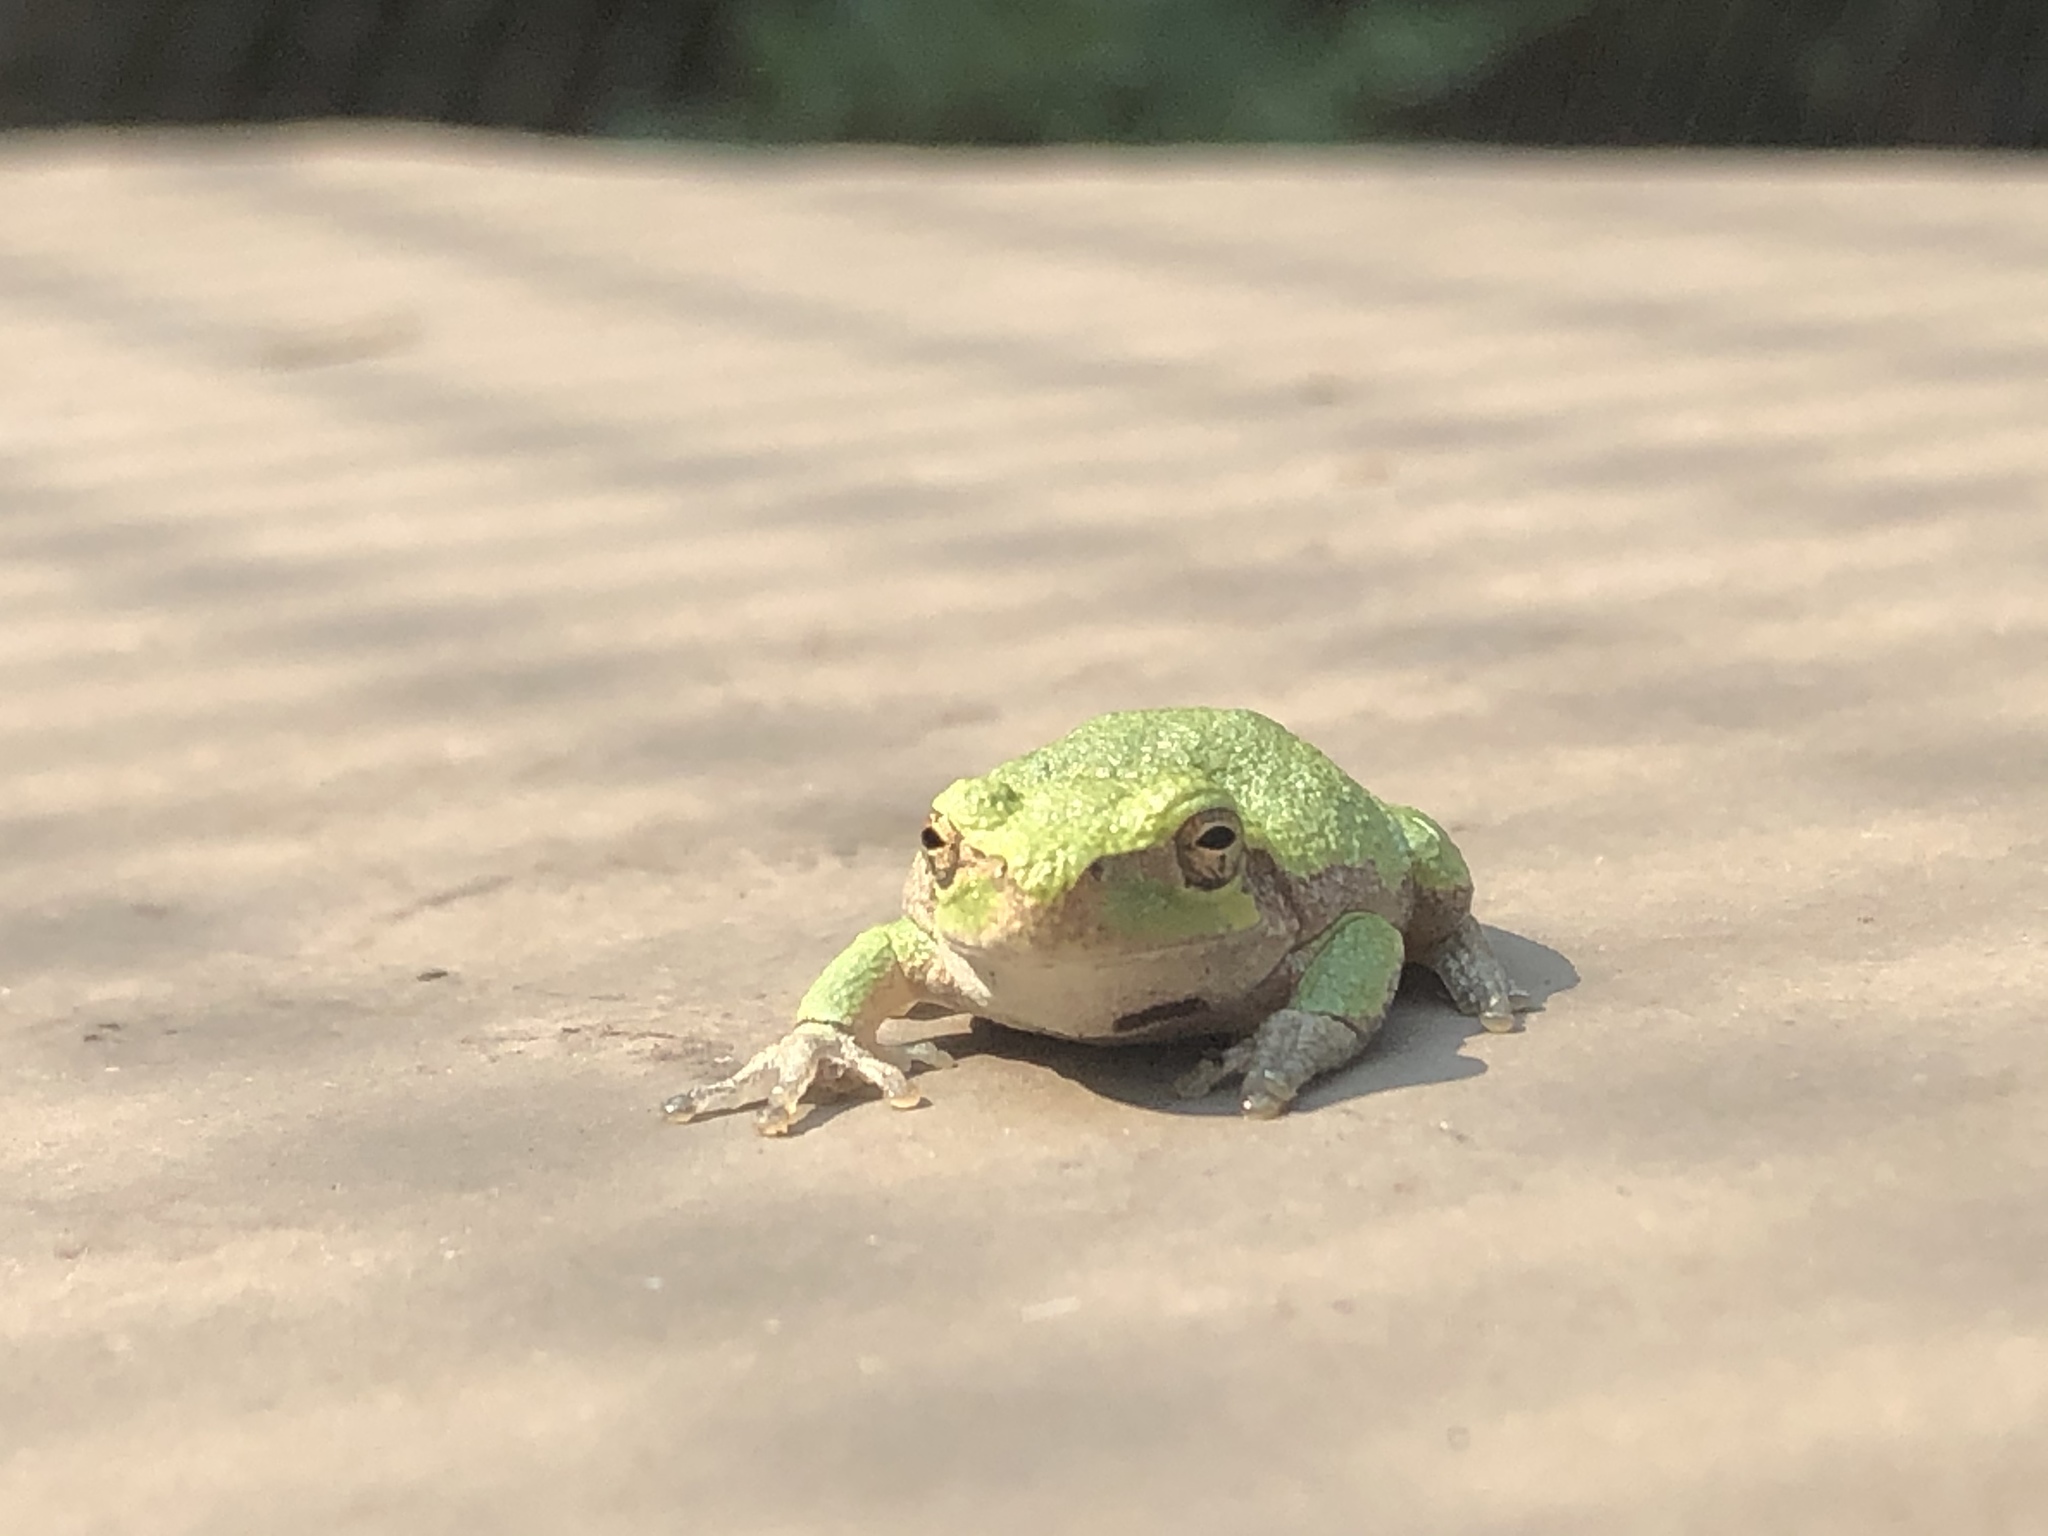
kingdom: Animalia
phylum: Chordata
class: Amphibia
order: Anura
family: Hylidae
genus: Hyla
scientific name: Hyla
